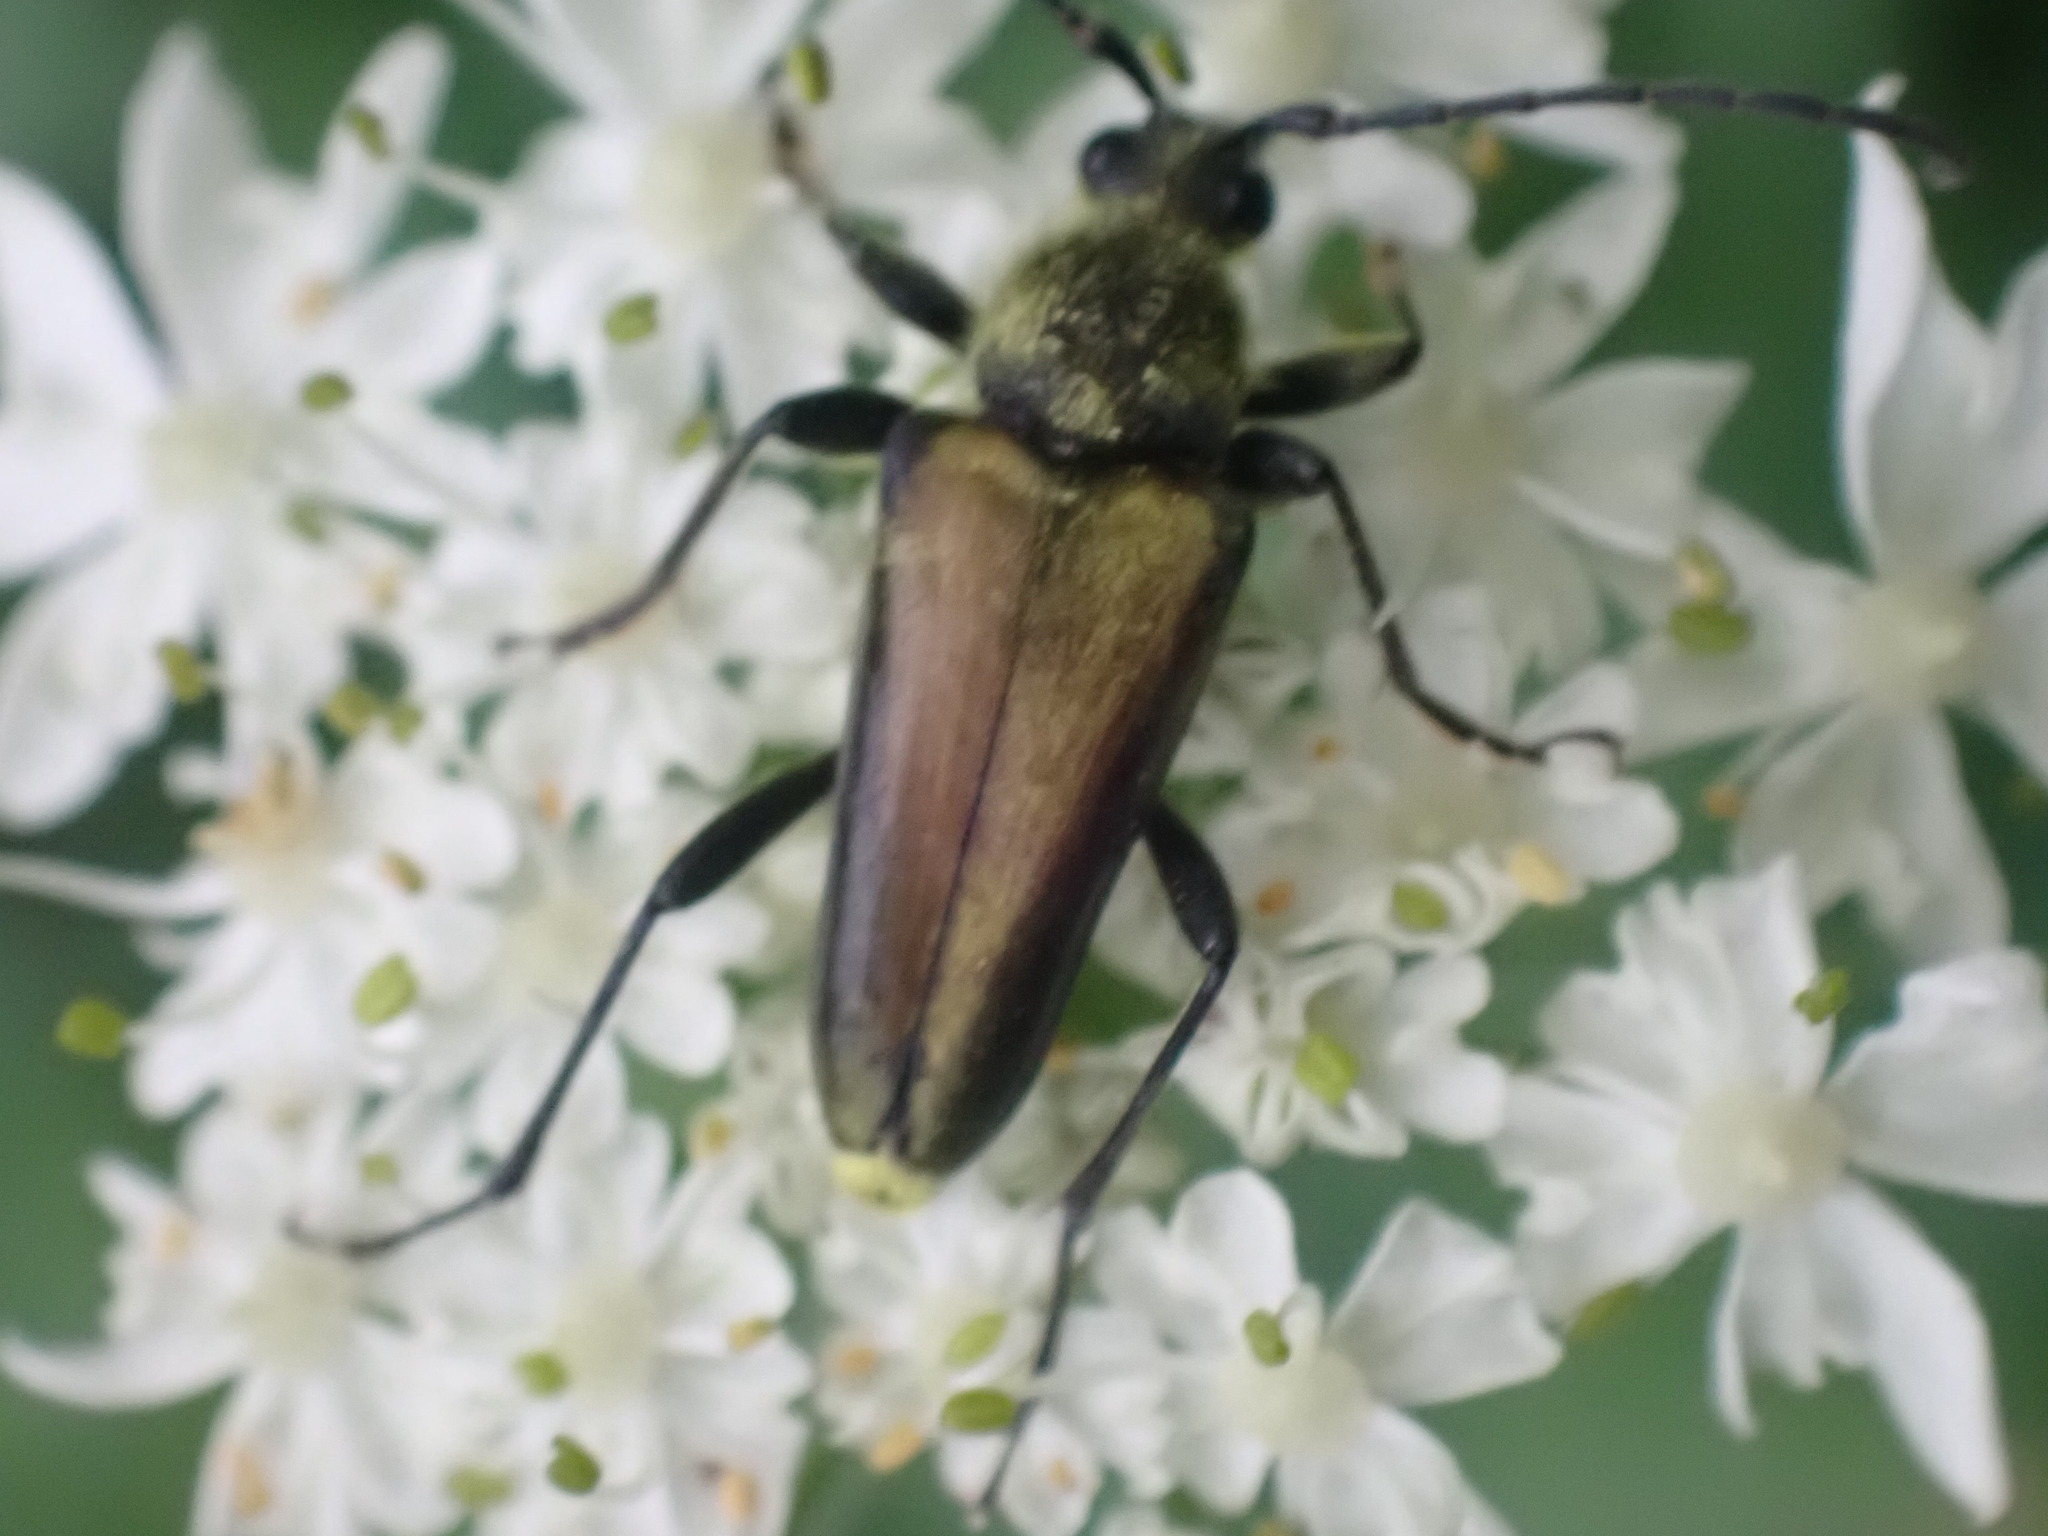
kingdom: Animalia
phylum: Arthropoda
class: Insecta
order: Coleoptera
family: Cerambycidae
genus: Cosmosalia
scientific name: Cosmosalia chrysocoma
